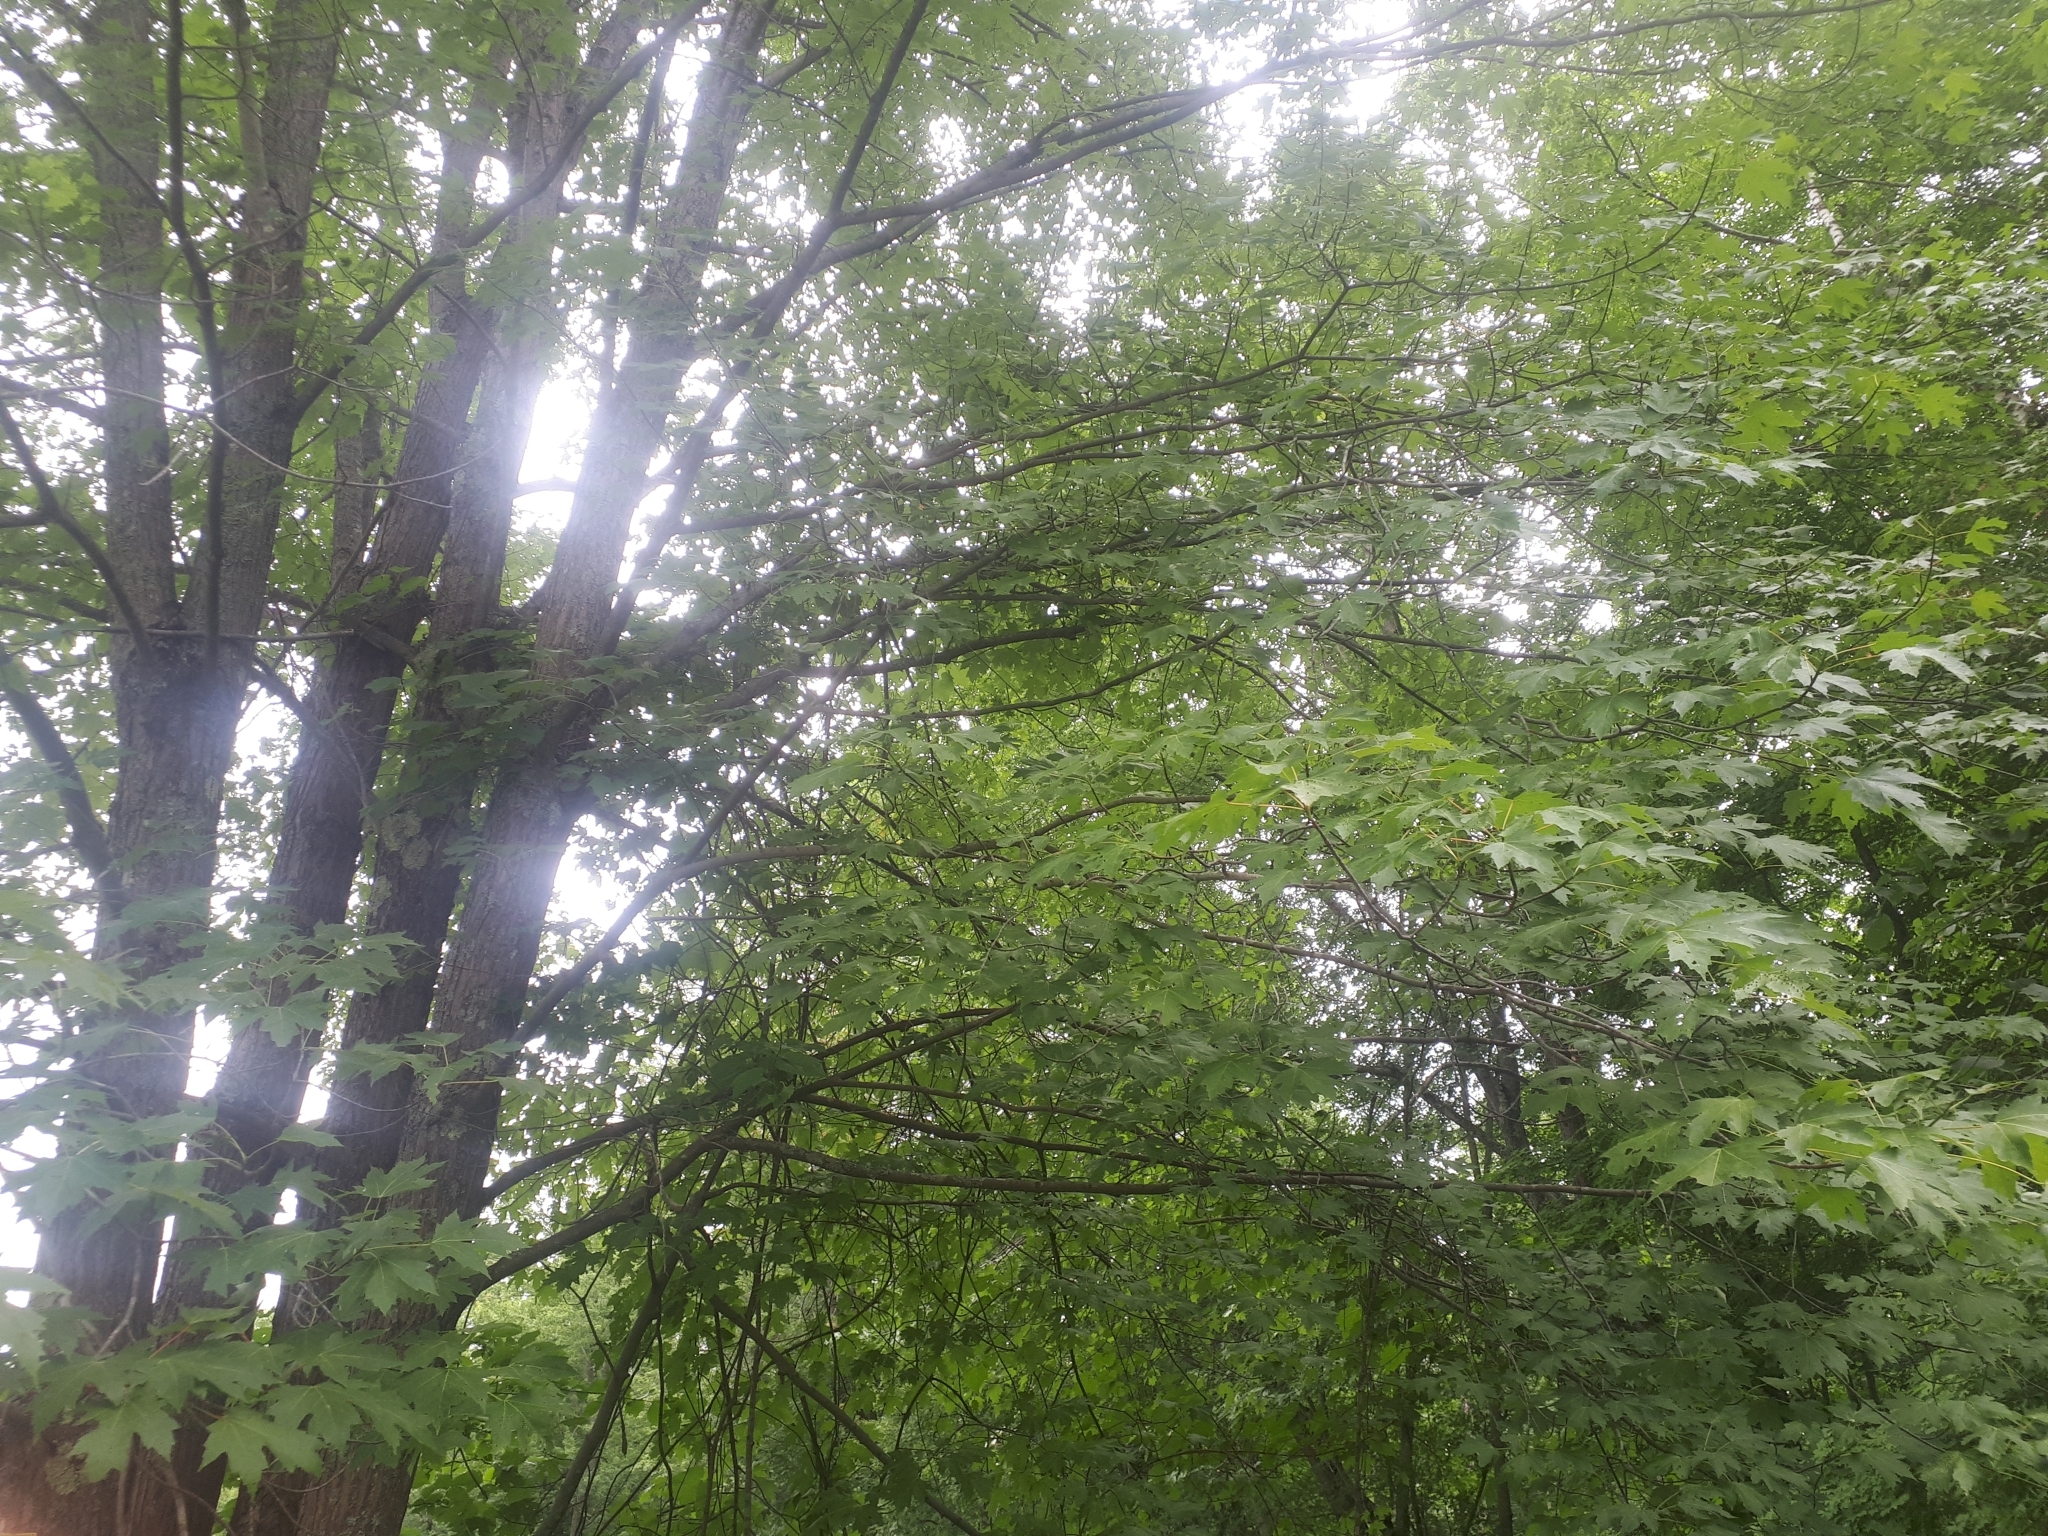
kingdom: Plantae
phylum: Tracheophyta
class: Magnoliopsida
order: Sapindales
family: Sapindaceae
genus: Acer
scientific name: Acer saccharinum
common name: Silver maple
